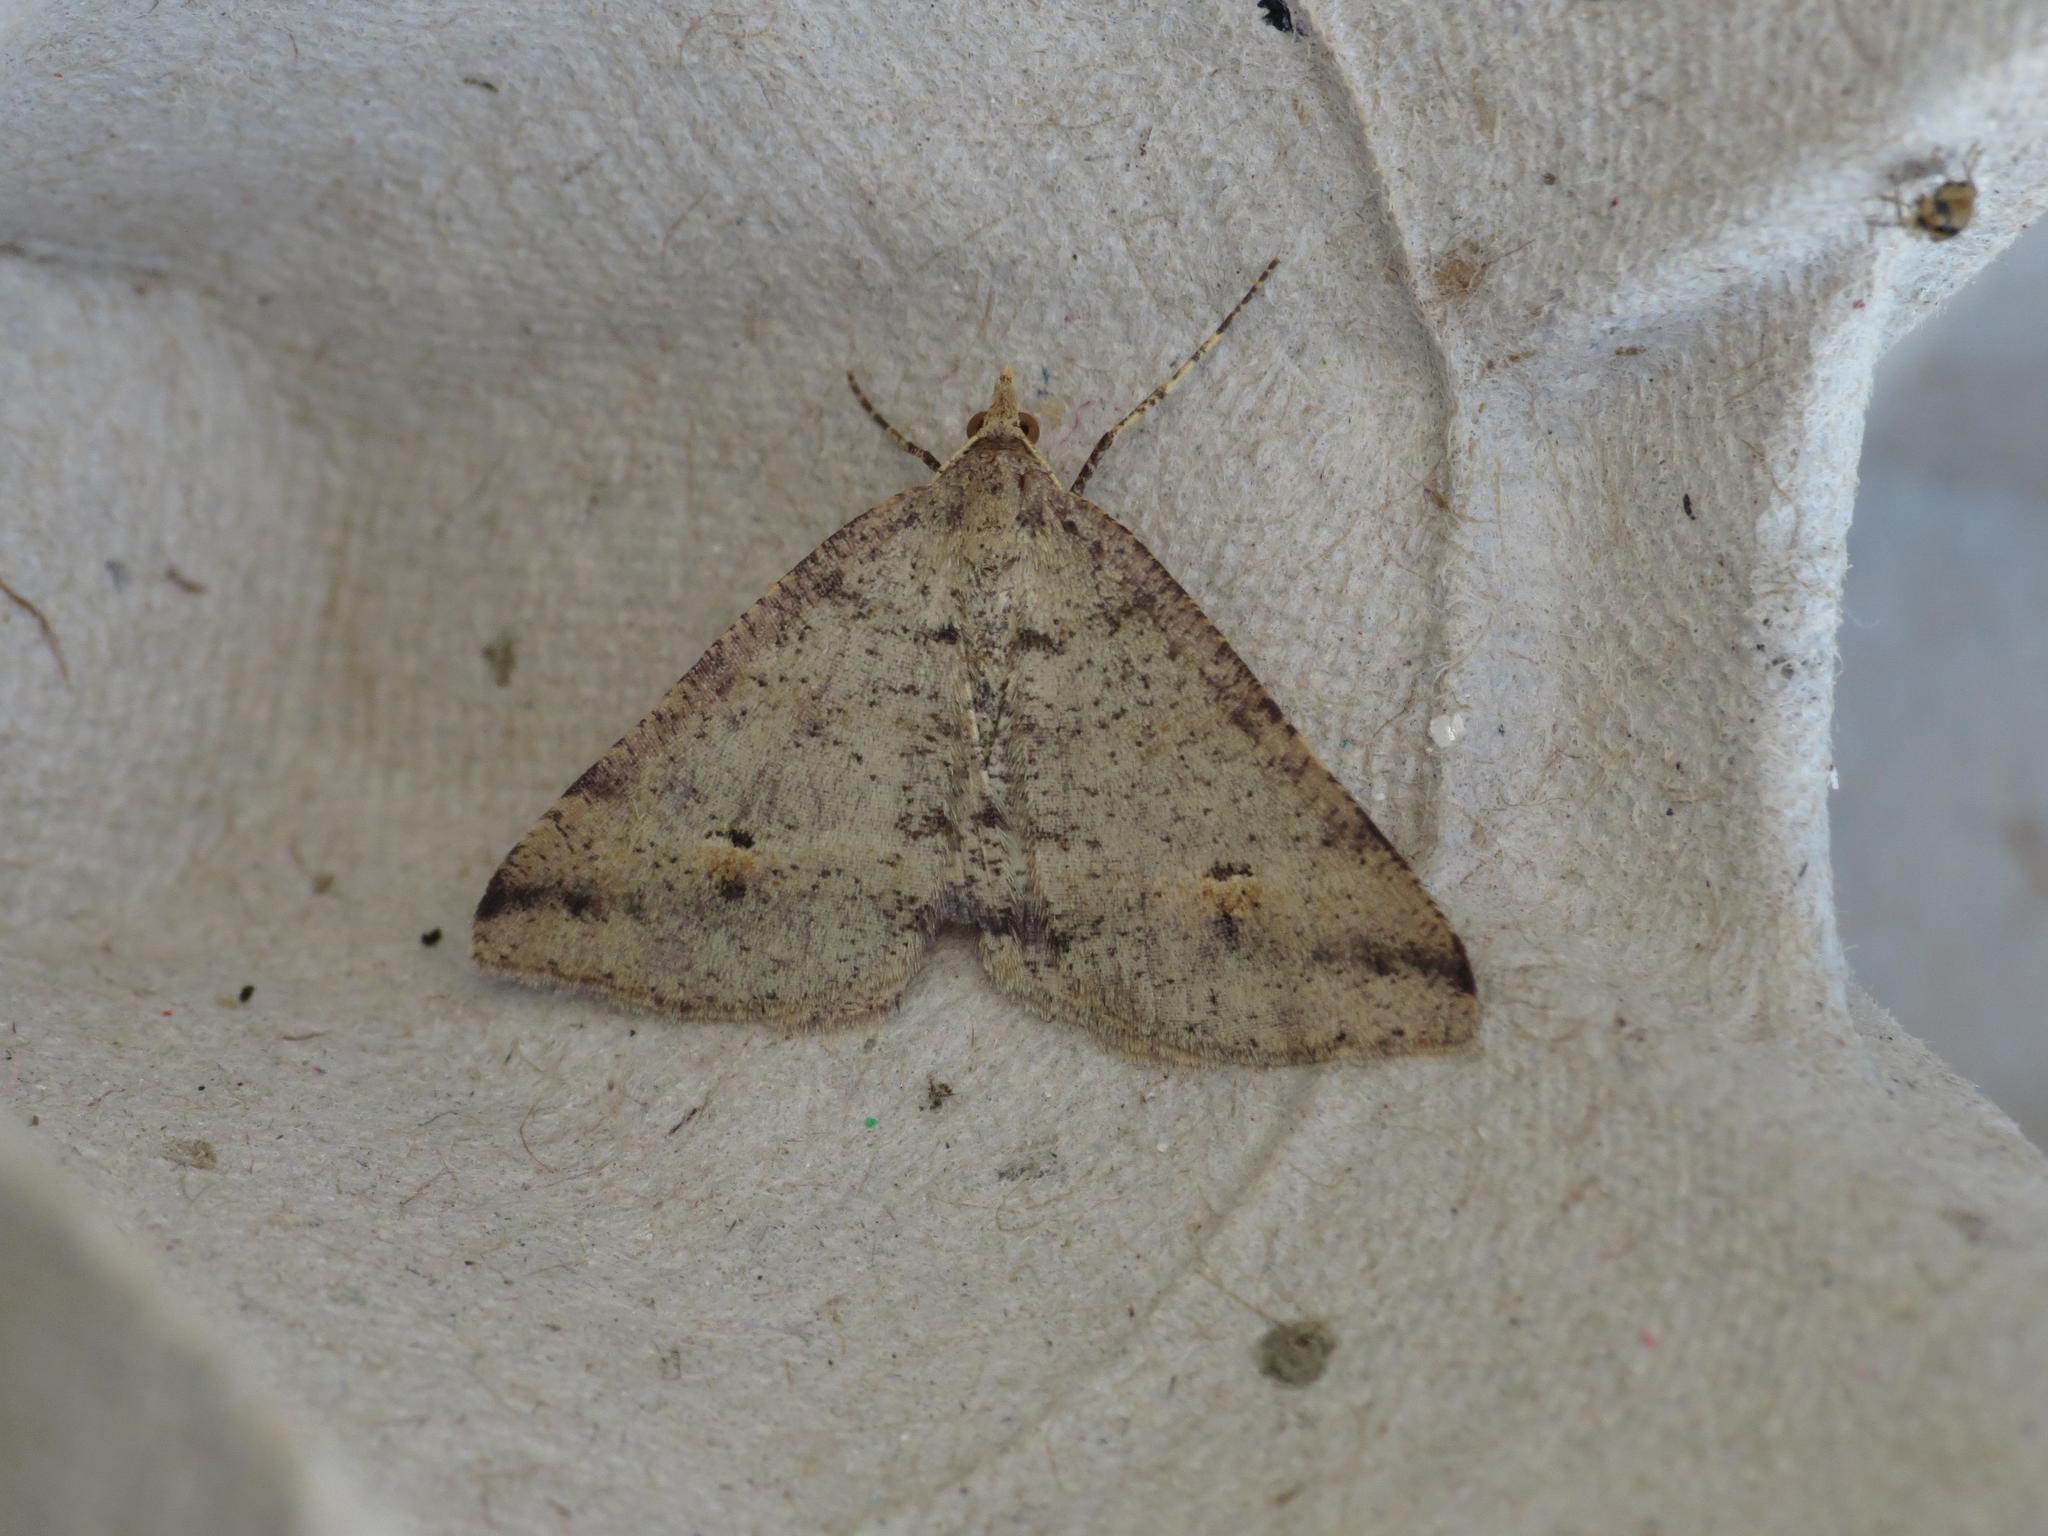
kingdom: Animalia
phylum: Arthropoda
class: Insecta
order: Lepidoptera
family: Geometridae
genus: Parosteodes
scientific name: Parosteodes fictiliaria
